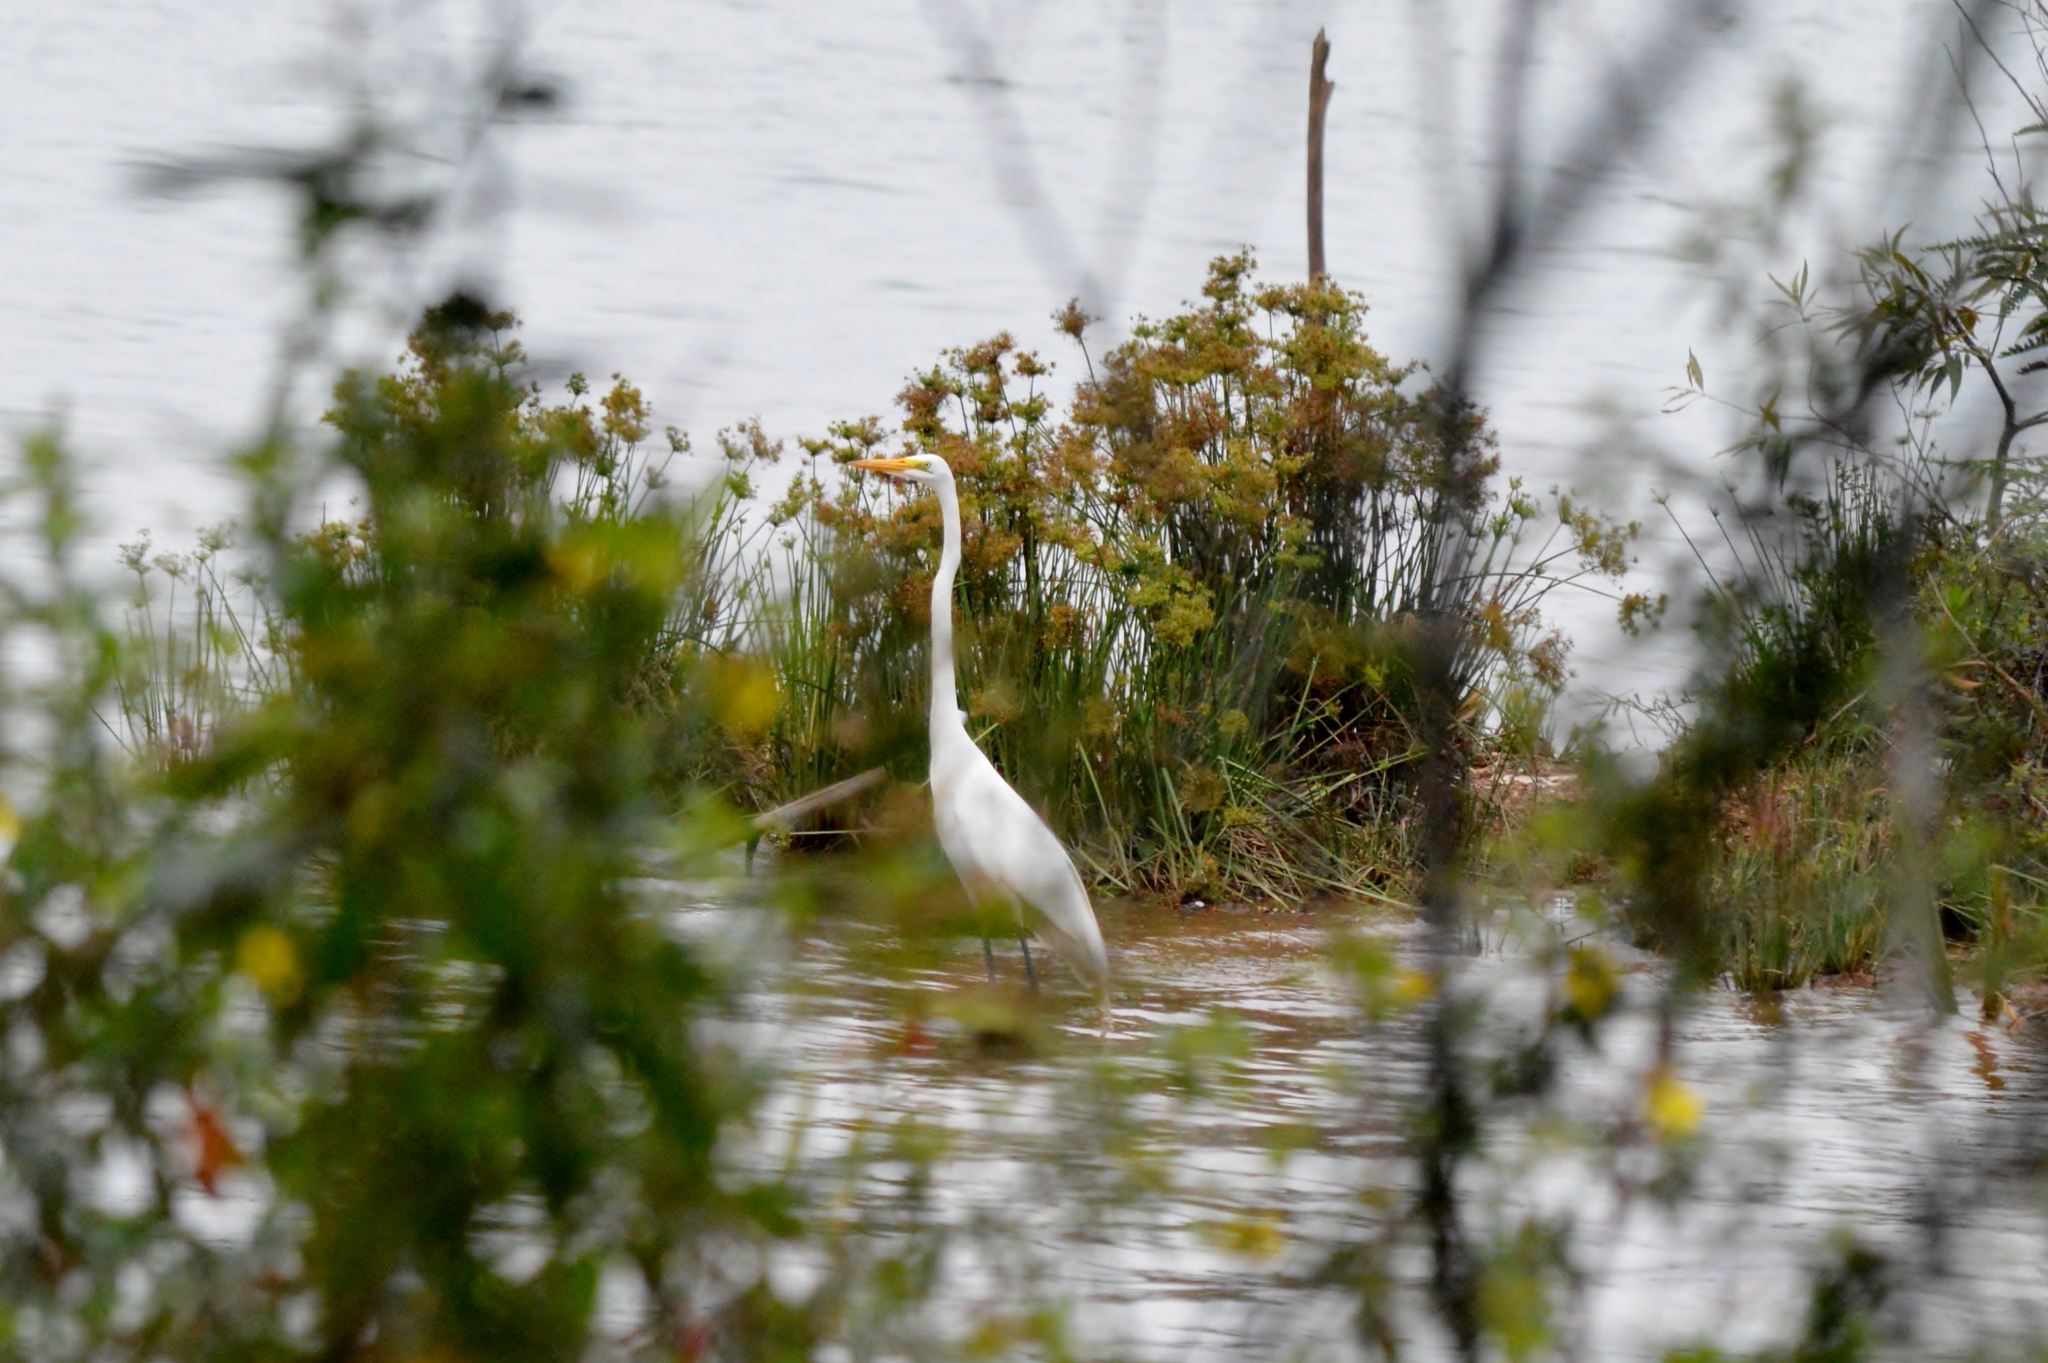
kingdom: Animalia
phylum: Chordata
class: Aves
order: Pelecaniformes
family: Ardeidae
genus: Ardea
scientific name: Ardea alba
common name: Great egret
